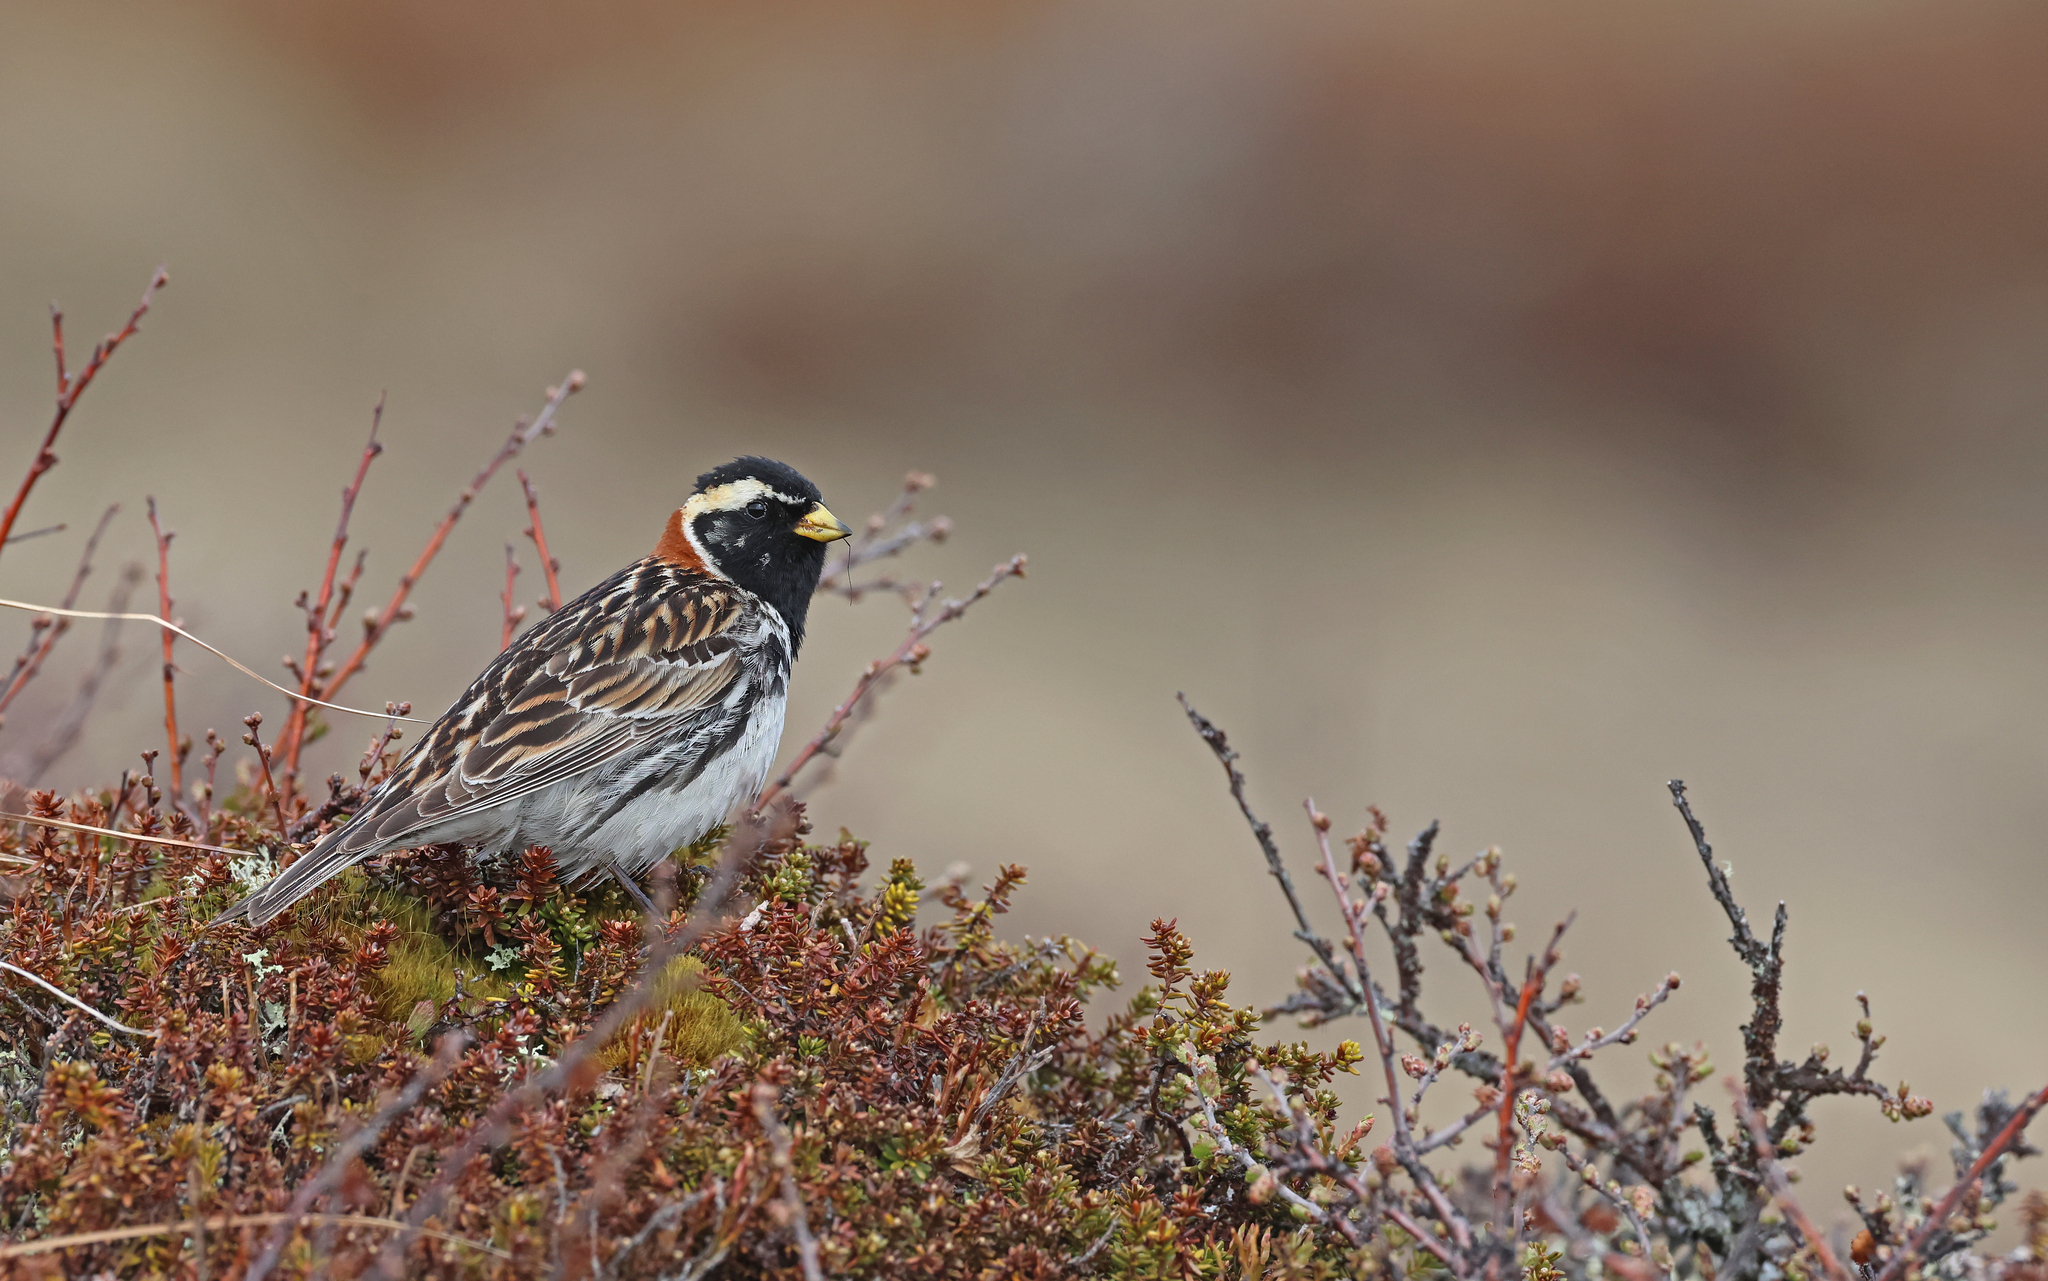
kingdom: Animalia
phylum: Chordata
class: Aves
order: Passeriformes
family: Calcariidae
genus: Calcarius
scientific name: Calcarius lapponicus
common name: Lapland longspur
